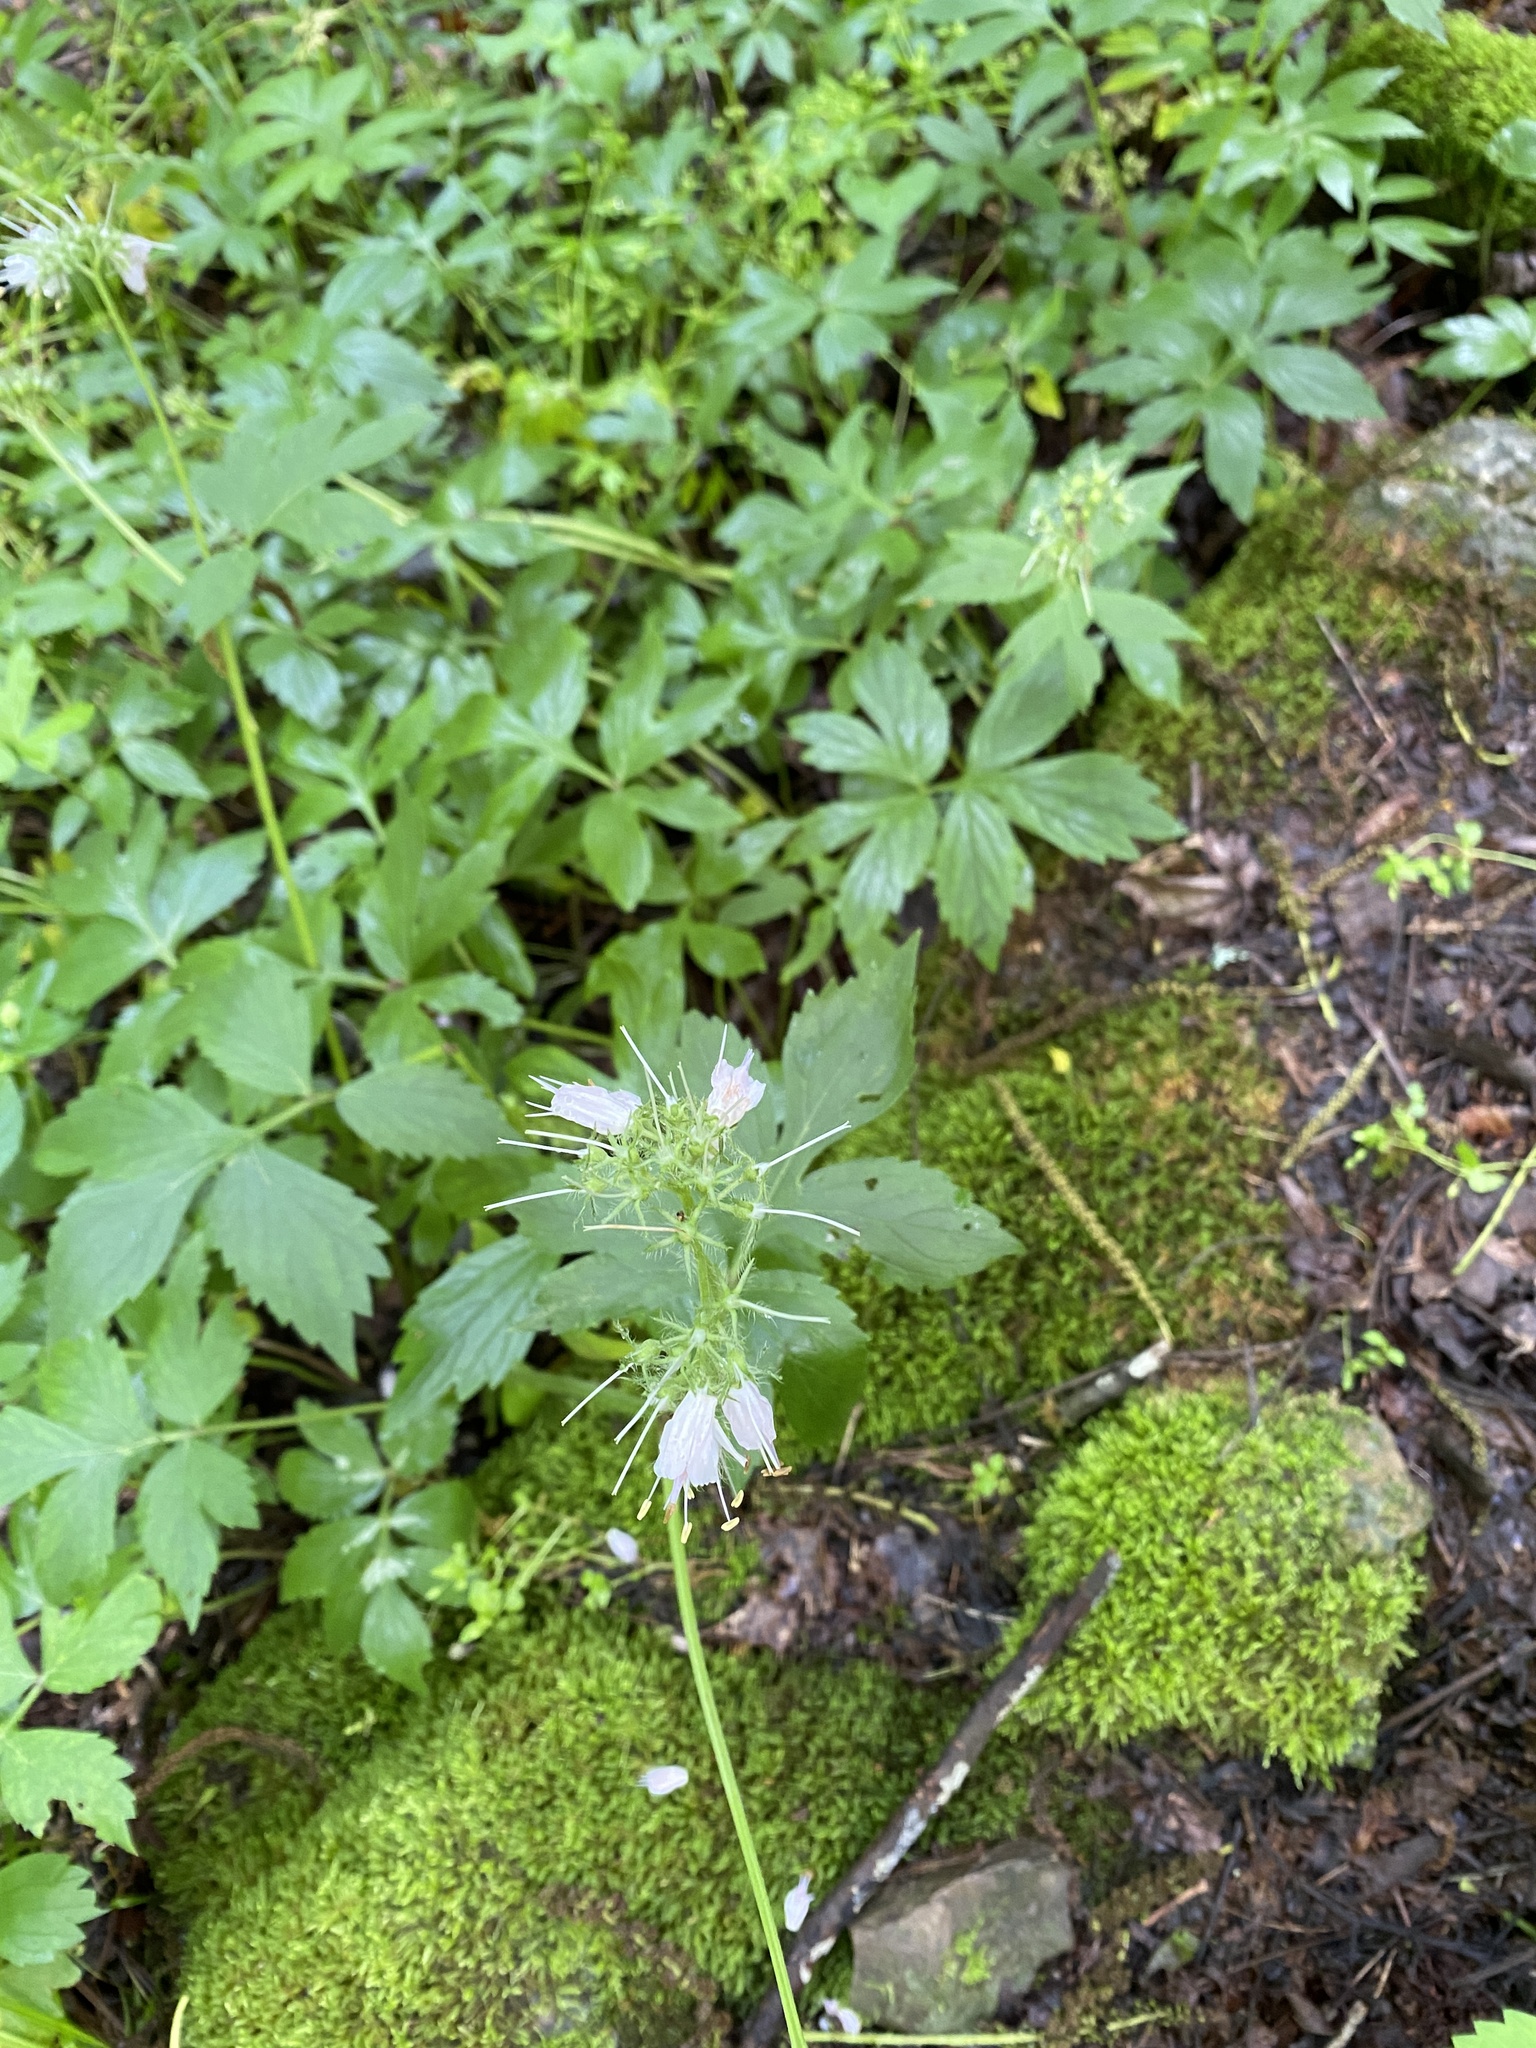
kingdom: Plantae
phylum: Tracheophyta
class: Magnoliopsida
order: Boraginales
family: Hydrophyllaceae
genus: Hydrophyllum
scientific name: Hydrophyllum virginianum
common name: Virginia waterleaf
